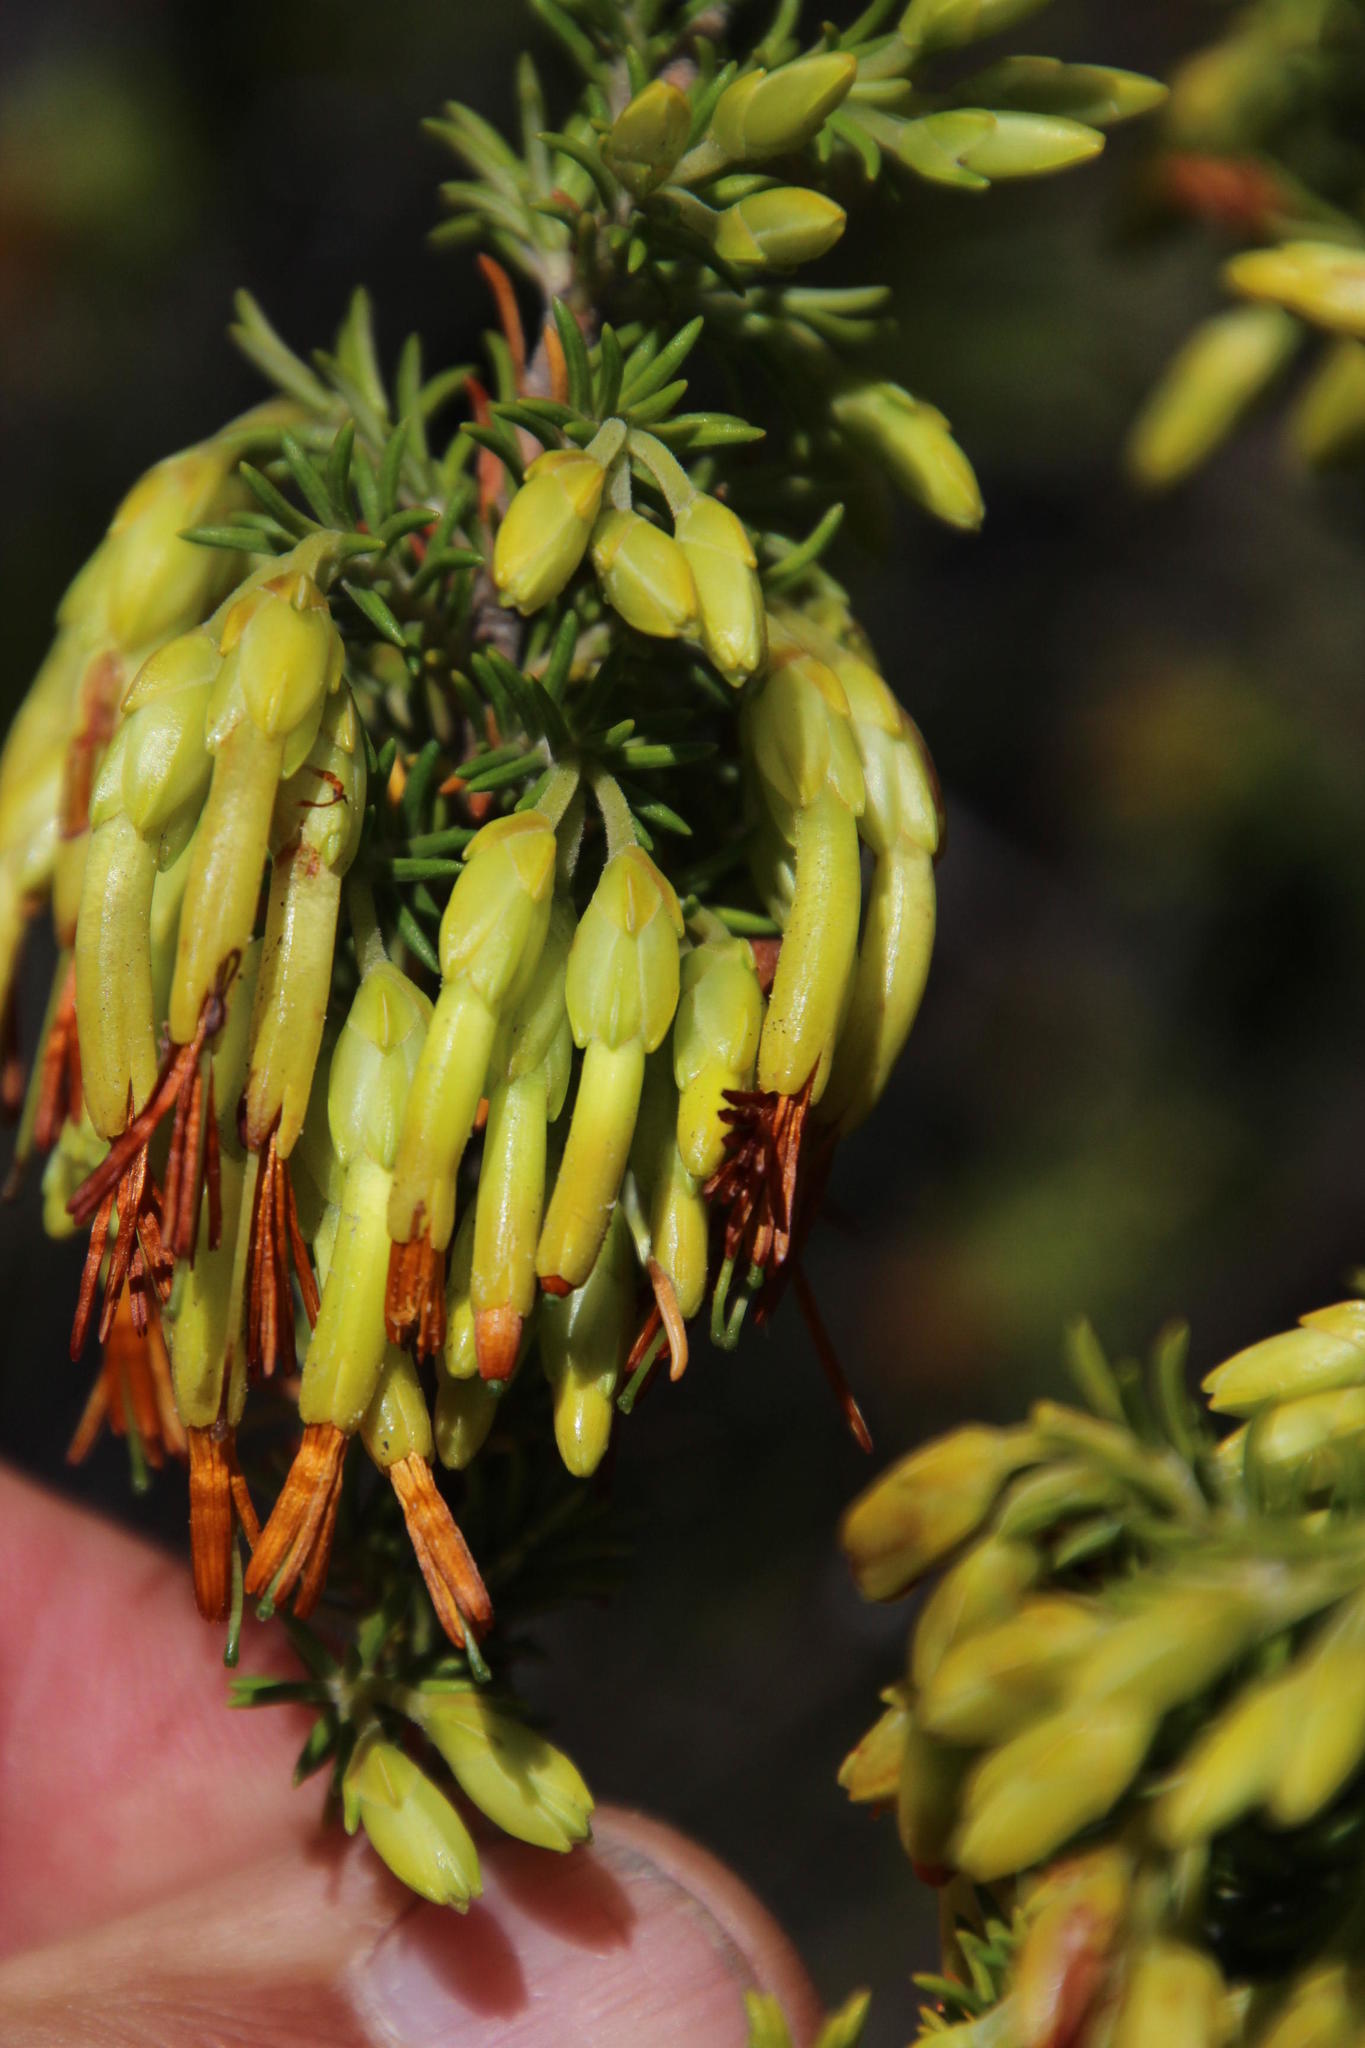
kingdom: Plantae
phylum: Tracheophyta
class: Magnoliopsida
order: Ericales
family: Ericaceae
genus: Erica
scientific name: Erica coccinea
